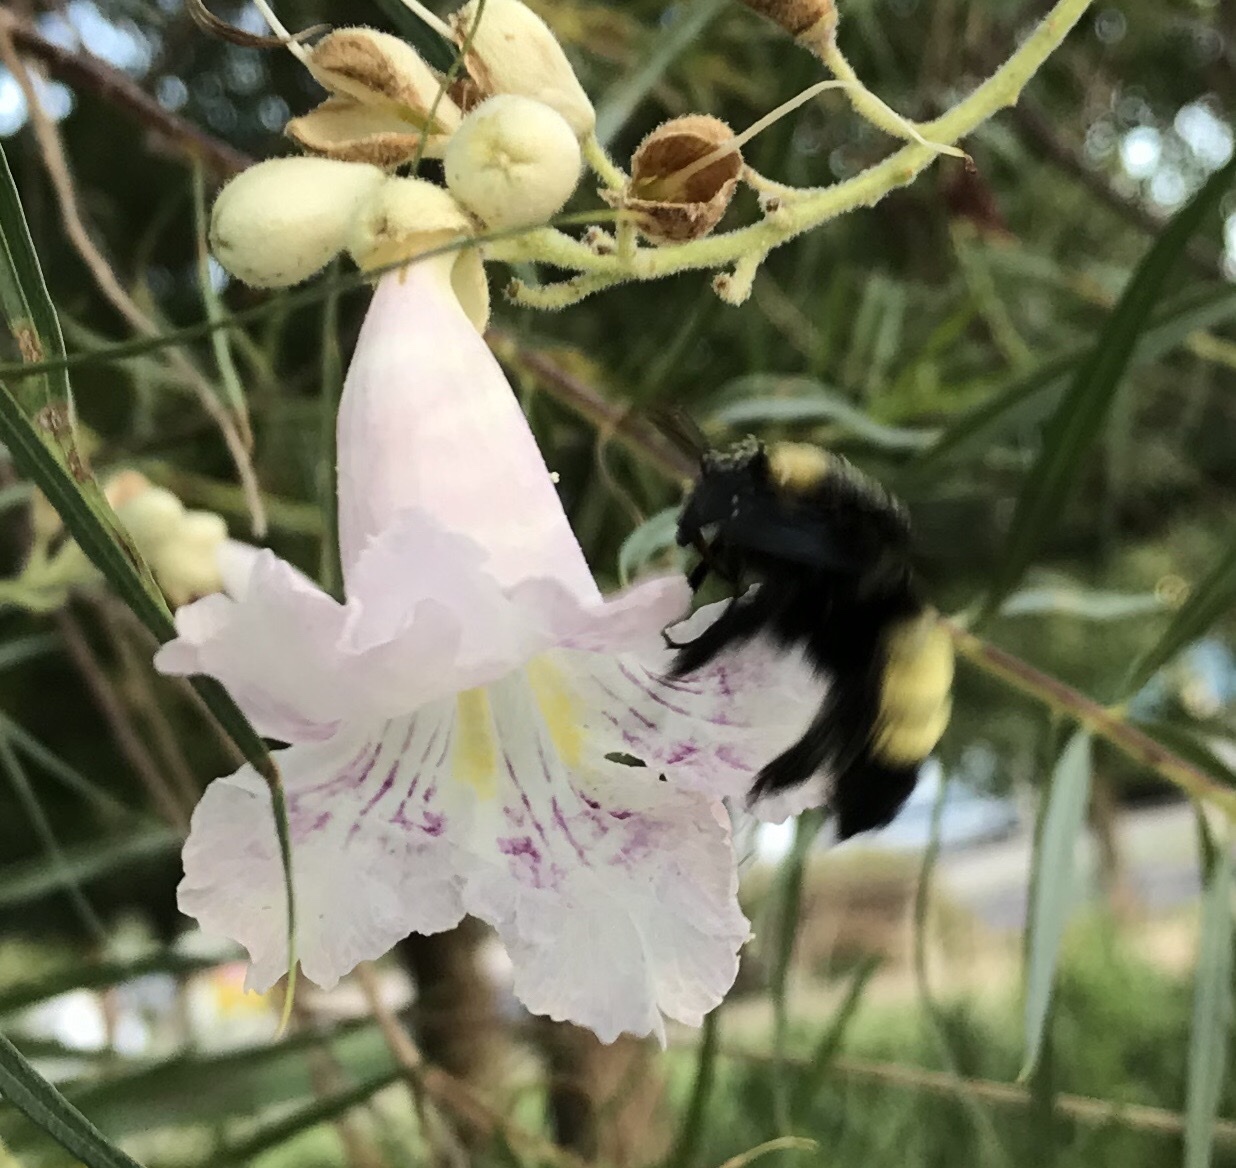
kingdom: Animalia
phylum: Arthropoda
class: Insecta
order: Hymenoptera
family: Apidae
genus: Bombus
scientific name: Bombus pensylvanicus
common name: Bumble bee
